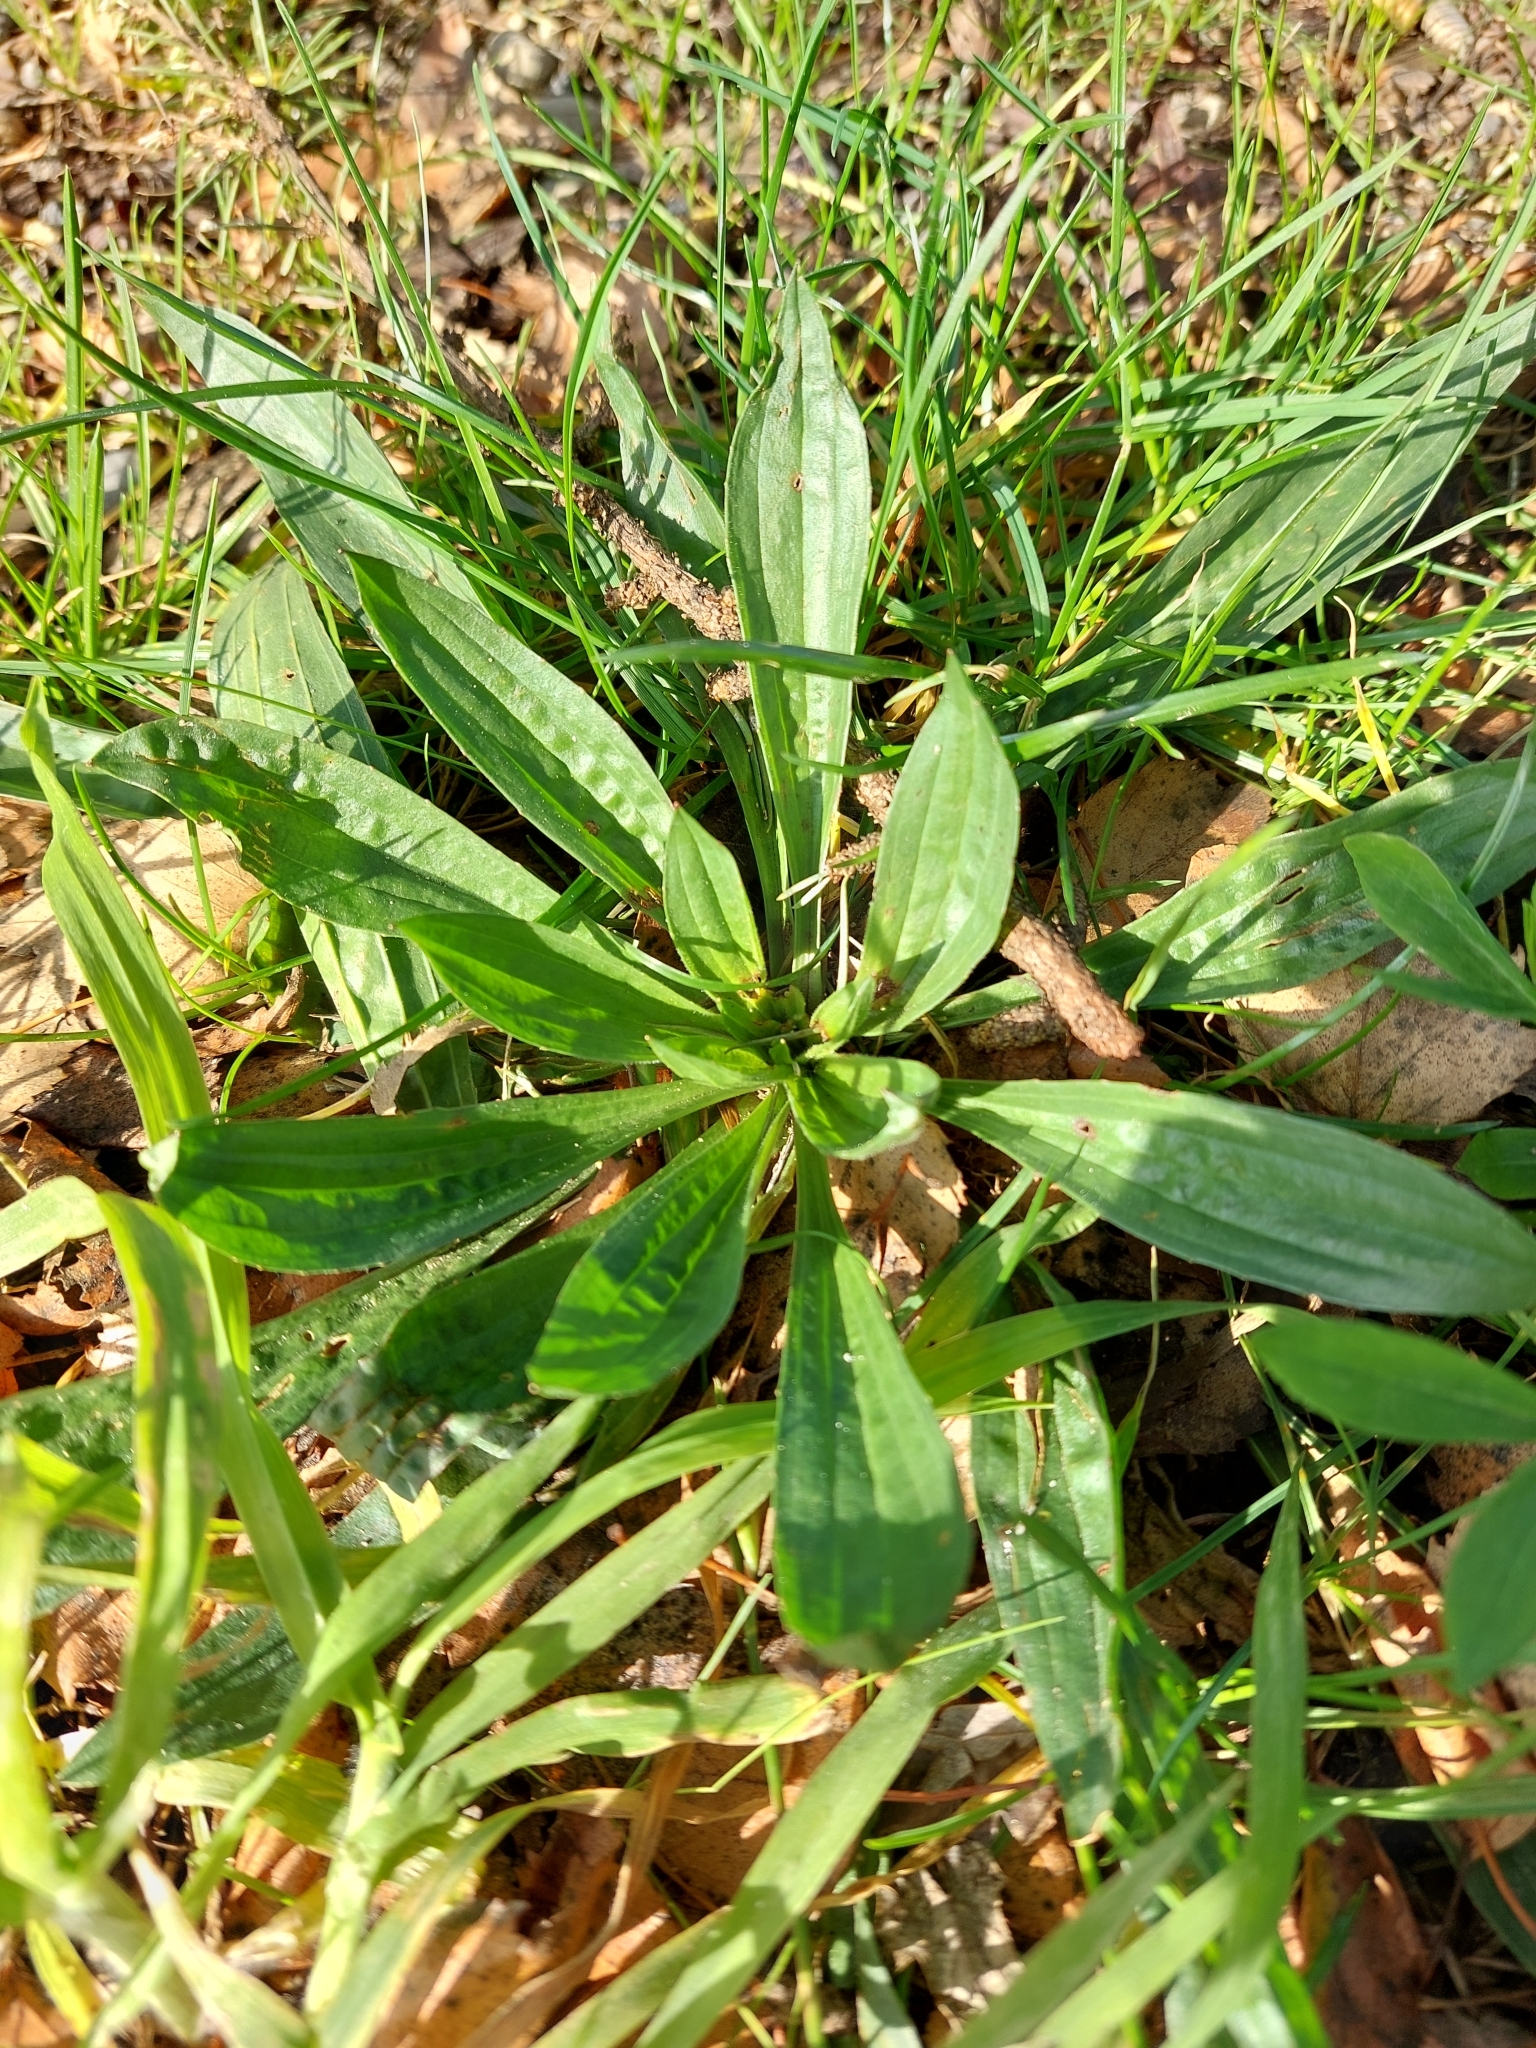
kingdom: Plantae
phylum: Tracheophyta
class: Magnoliopsida
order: Lamiales
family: Plantaginaceae
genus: Plantago
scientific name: Plantago lanceolata
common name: Ribwort plantain
